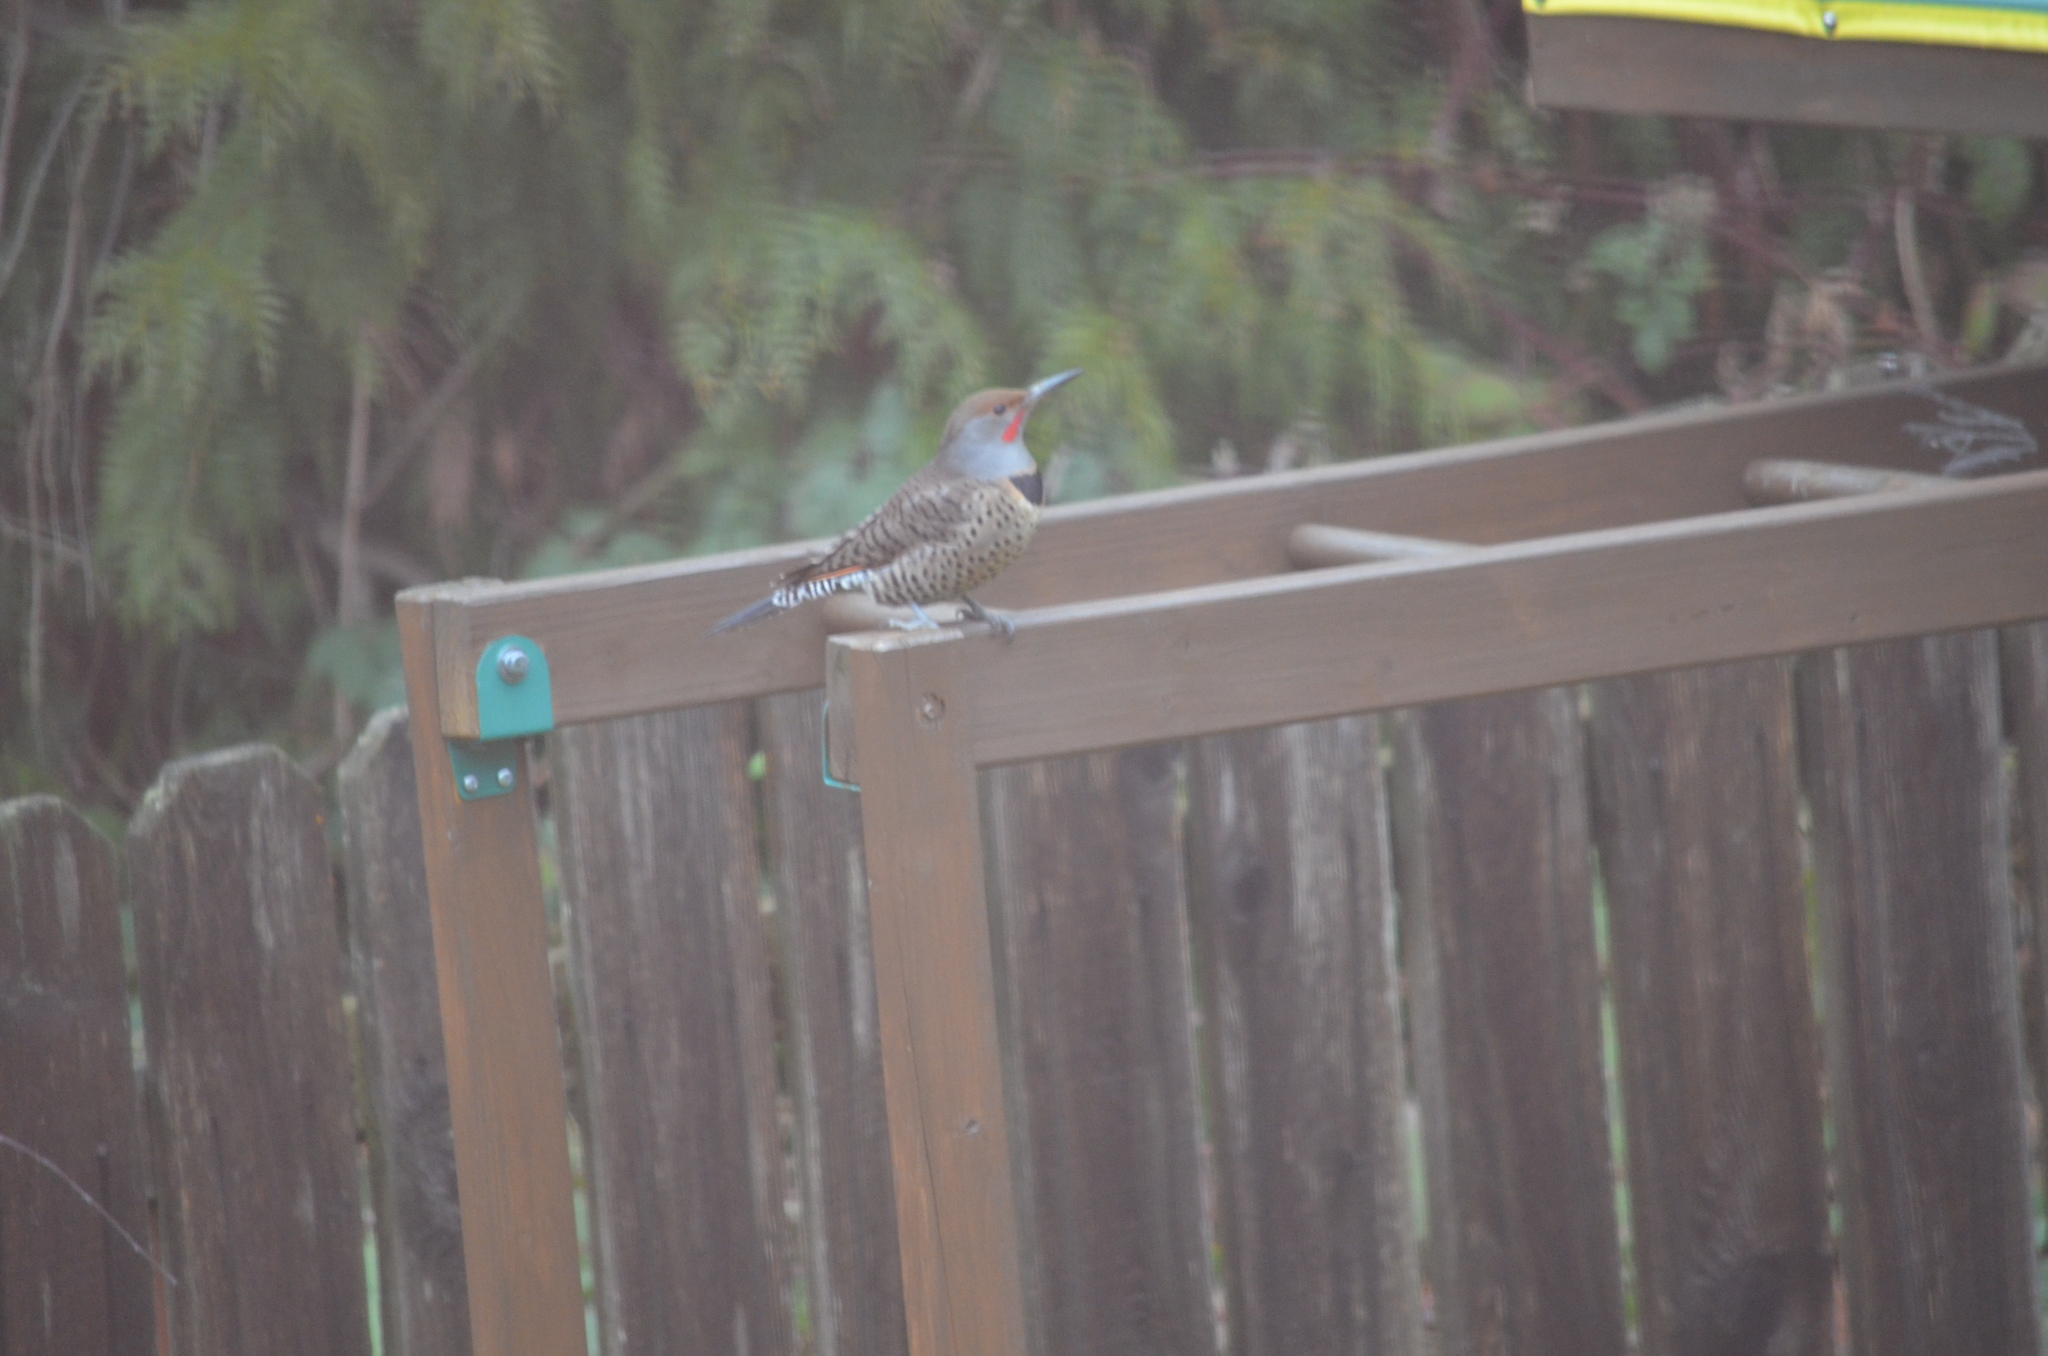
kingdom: Animalia
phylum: Chordata
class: Aves
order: Piciformes
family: Picidae
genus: Colaptes
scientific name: Colaptes auratus
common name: Northern flicker
